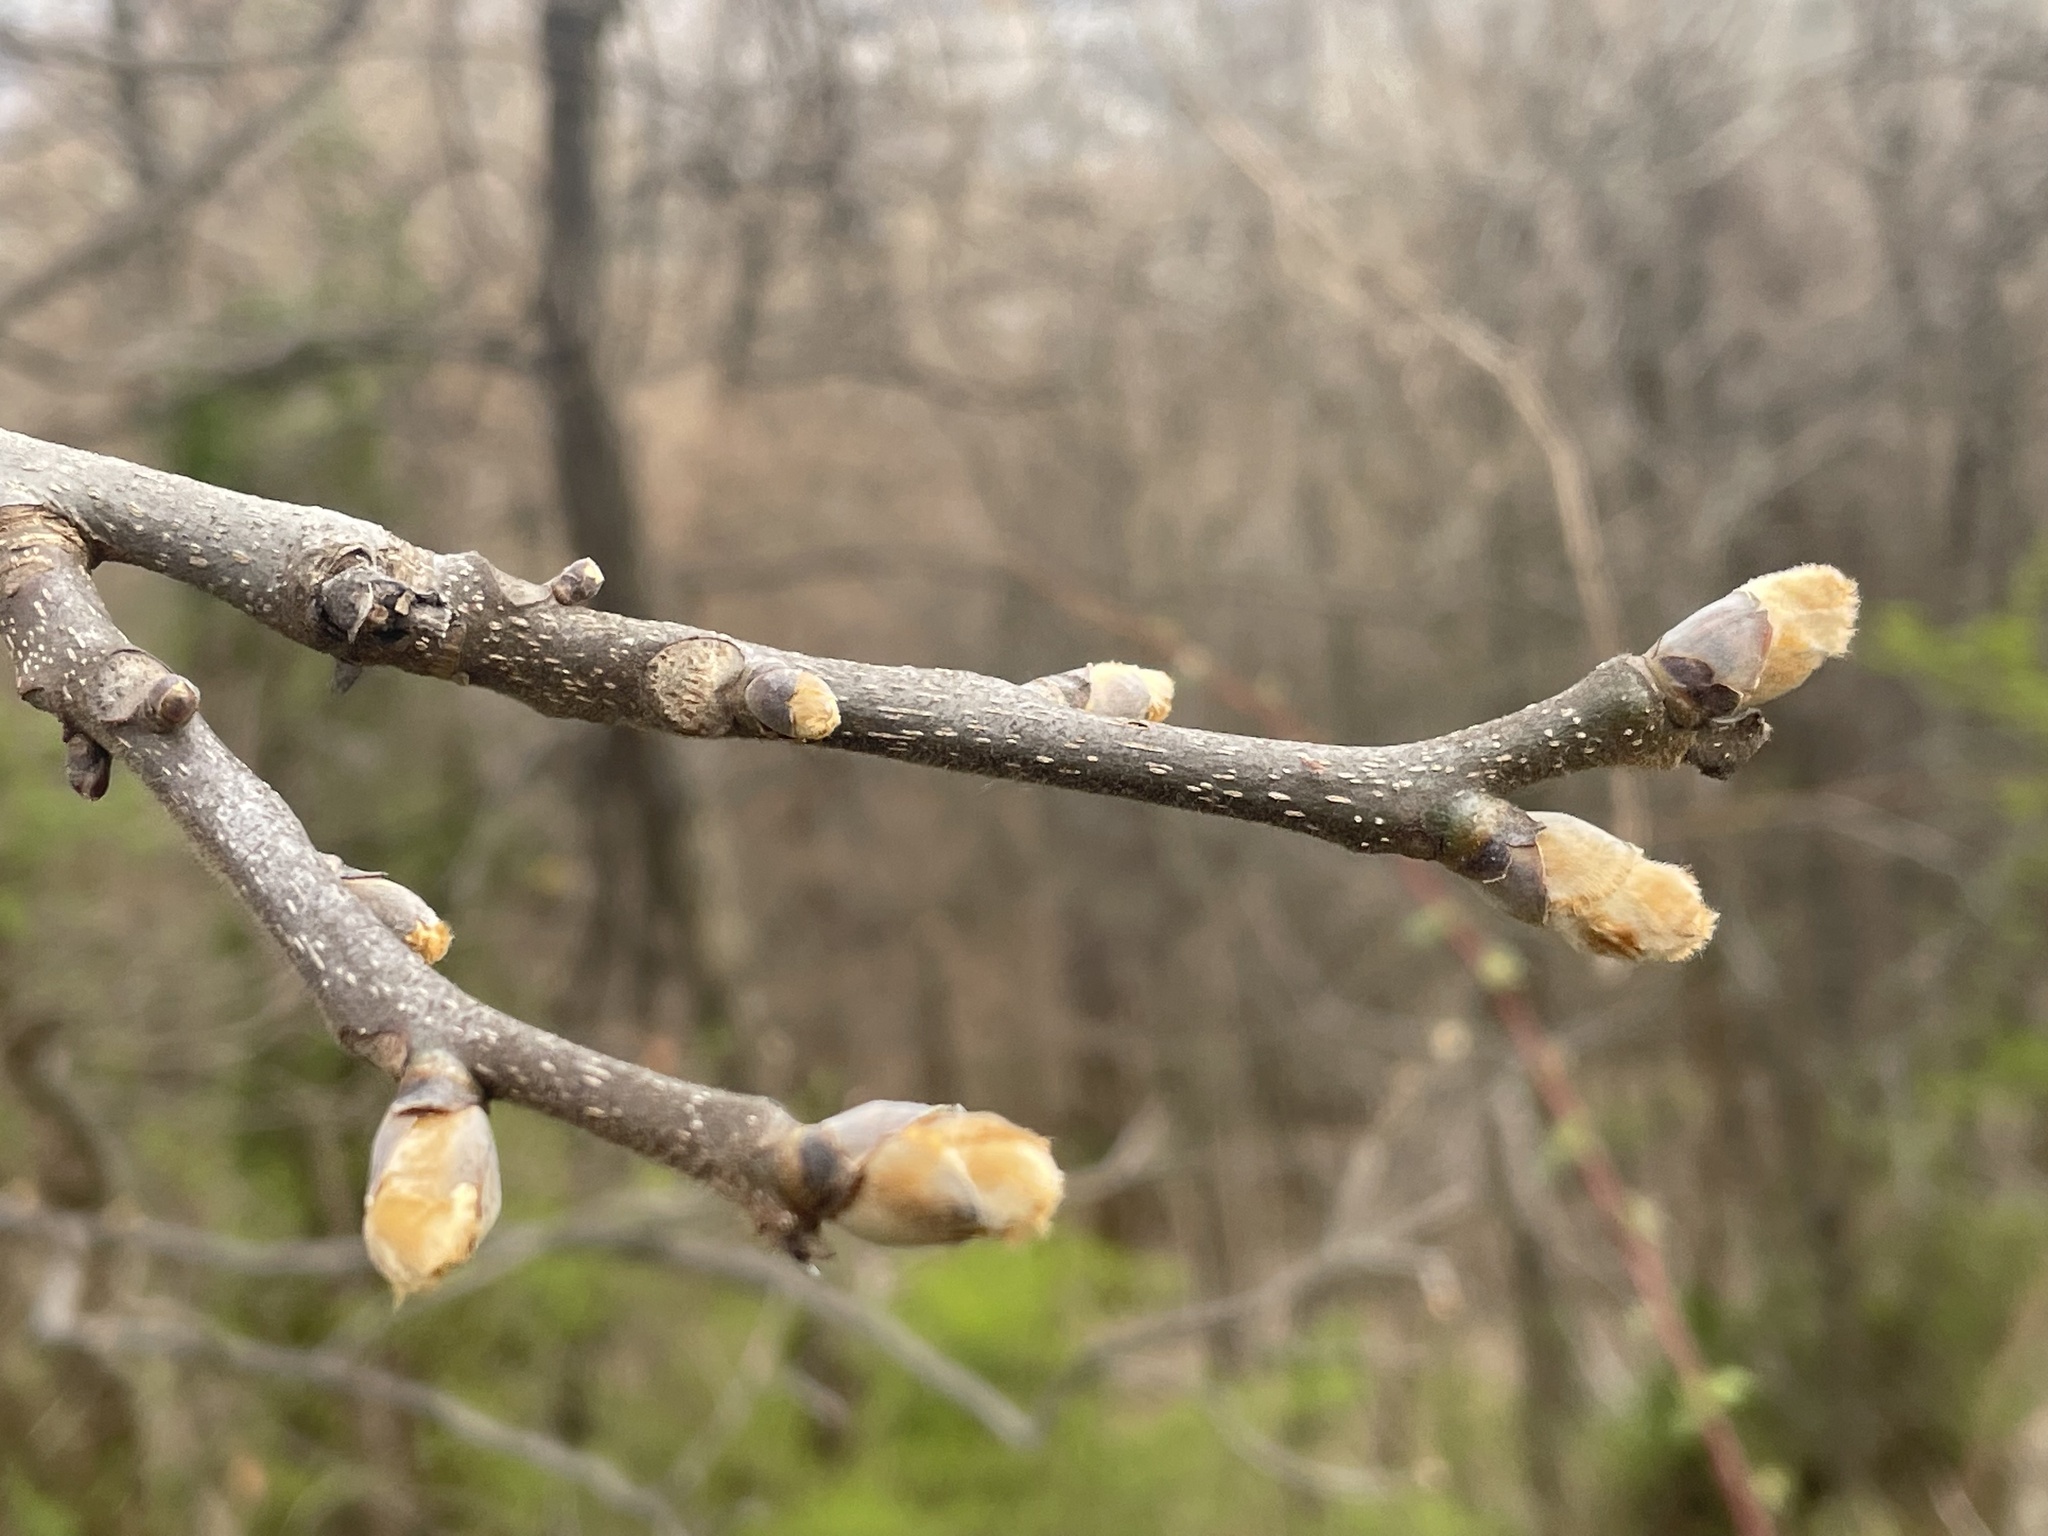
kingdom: Plantae
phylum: Tracheophyta
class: Magnoliopsida
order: Fagales
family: Juglandaceae
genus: Carya
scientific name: Carya ovata
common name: Shagbark hickory
